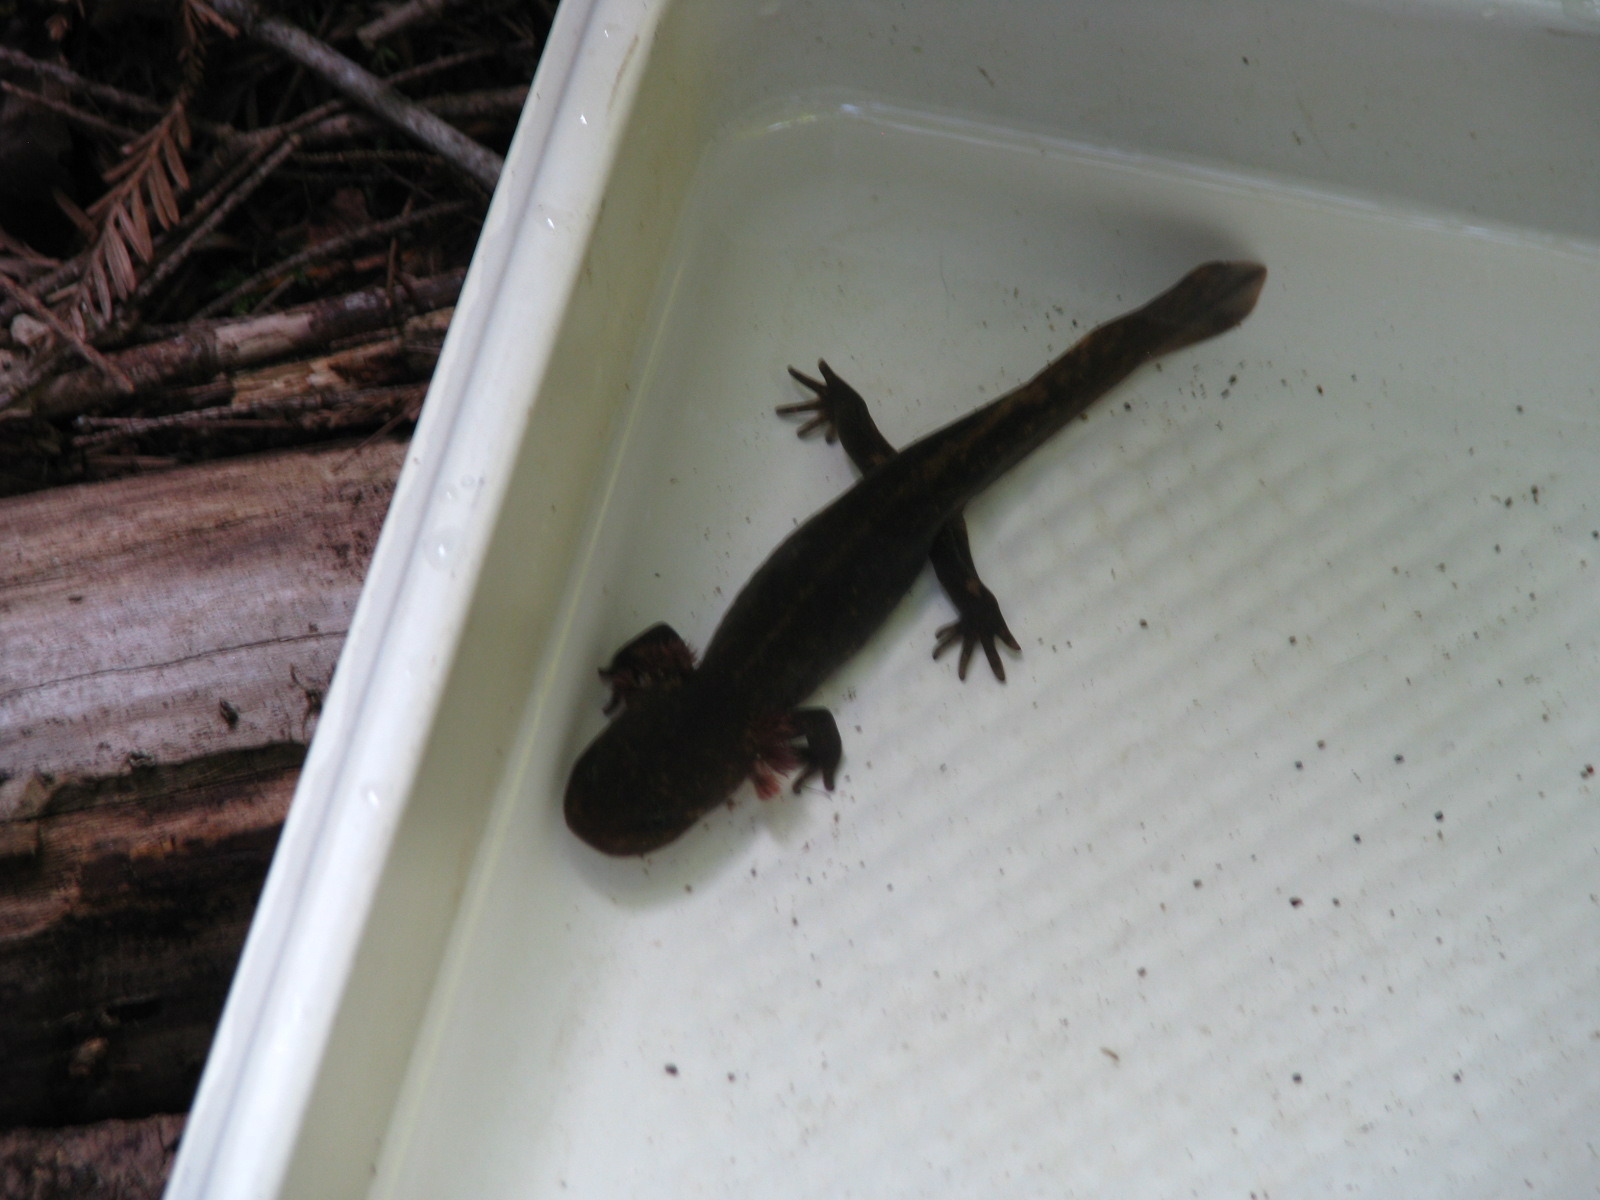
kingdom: Animalia
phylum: Chordata
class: Amphibia
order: Caudata
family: Ambystomatidae
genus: Dicamptodon
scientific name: Dicamptodon ensatus
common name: California giant salamander
